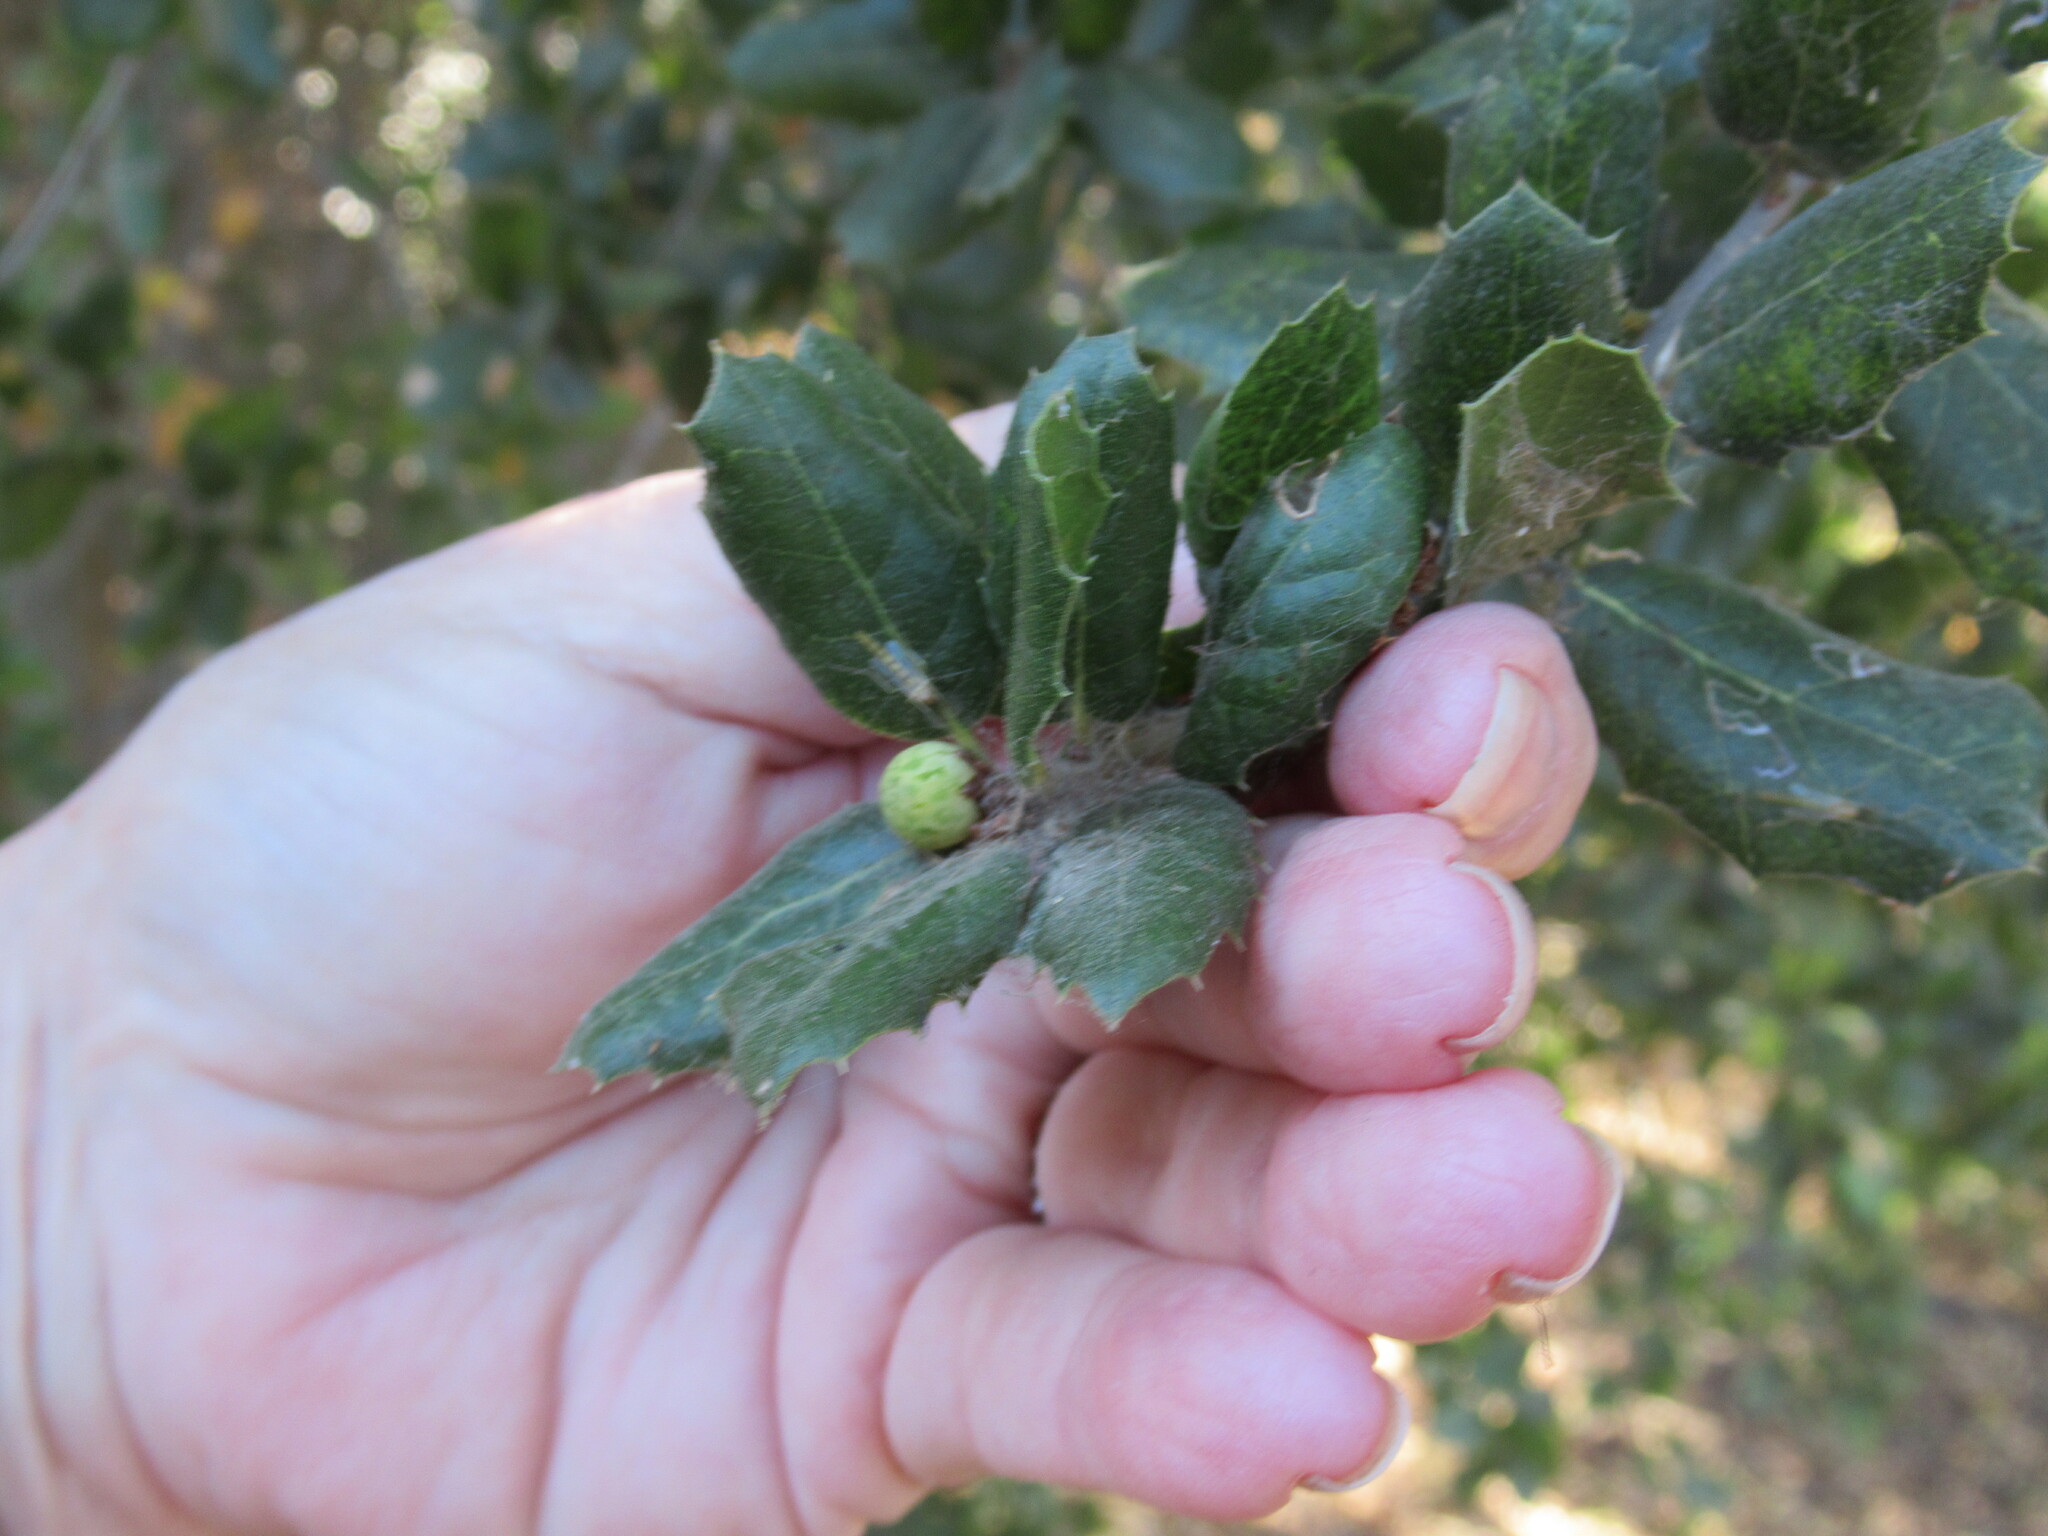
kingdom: Animalia
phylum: Arthropoda
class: Insecta
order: Hymenoptera
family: Cynipidae
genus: Callirhytis
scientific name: Callirhytis
